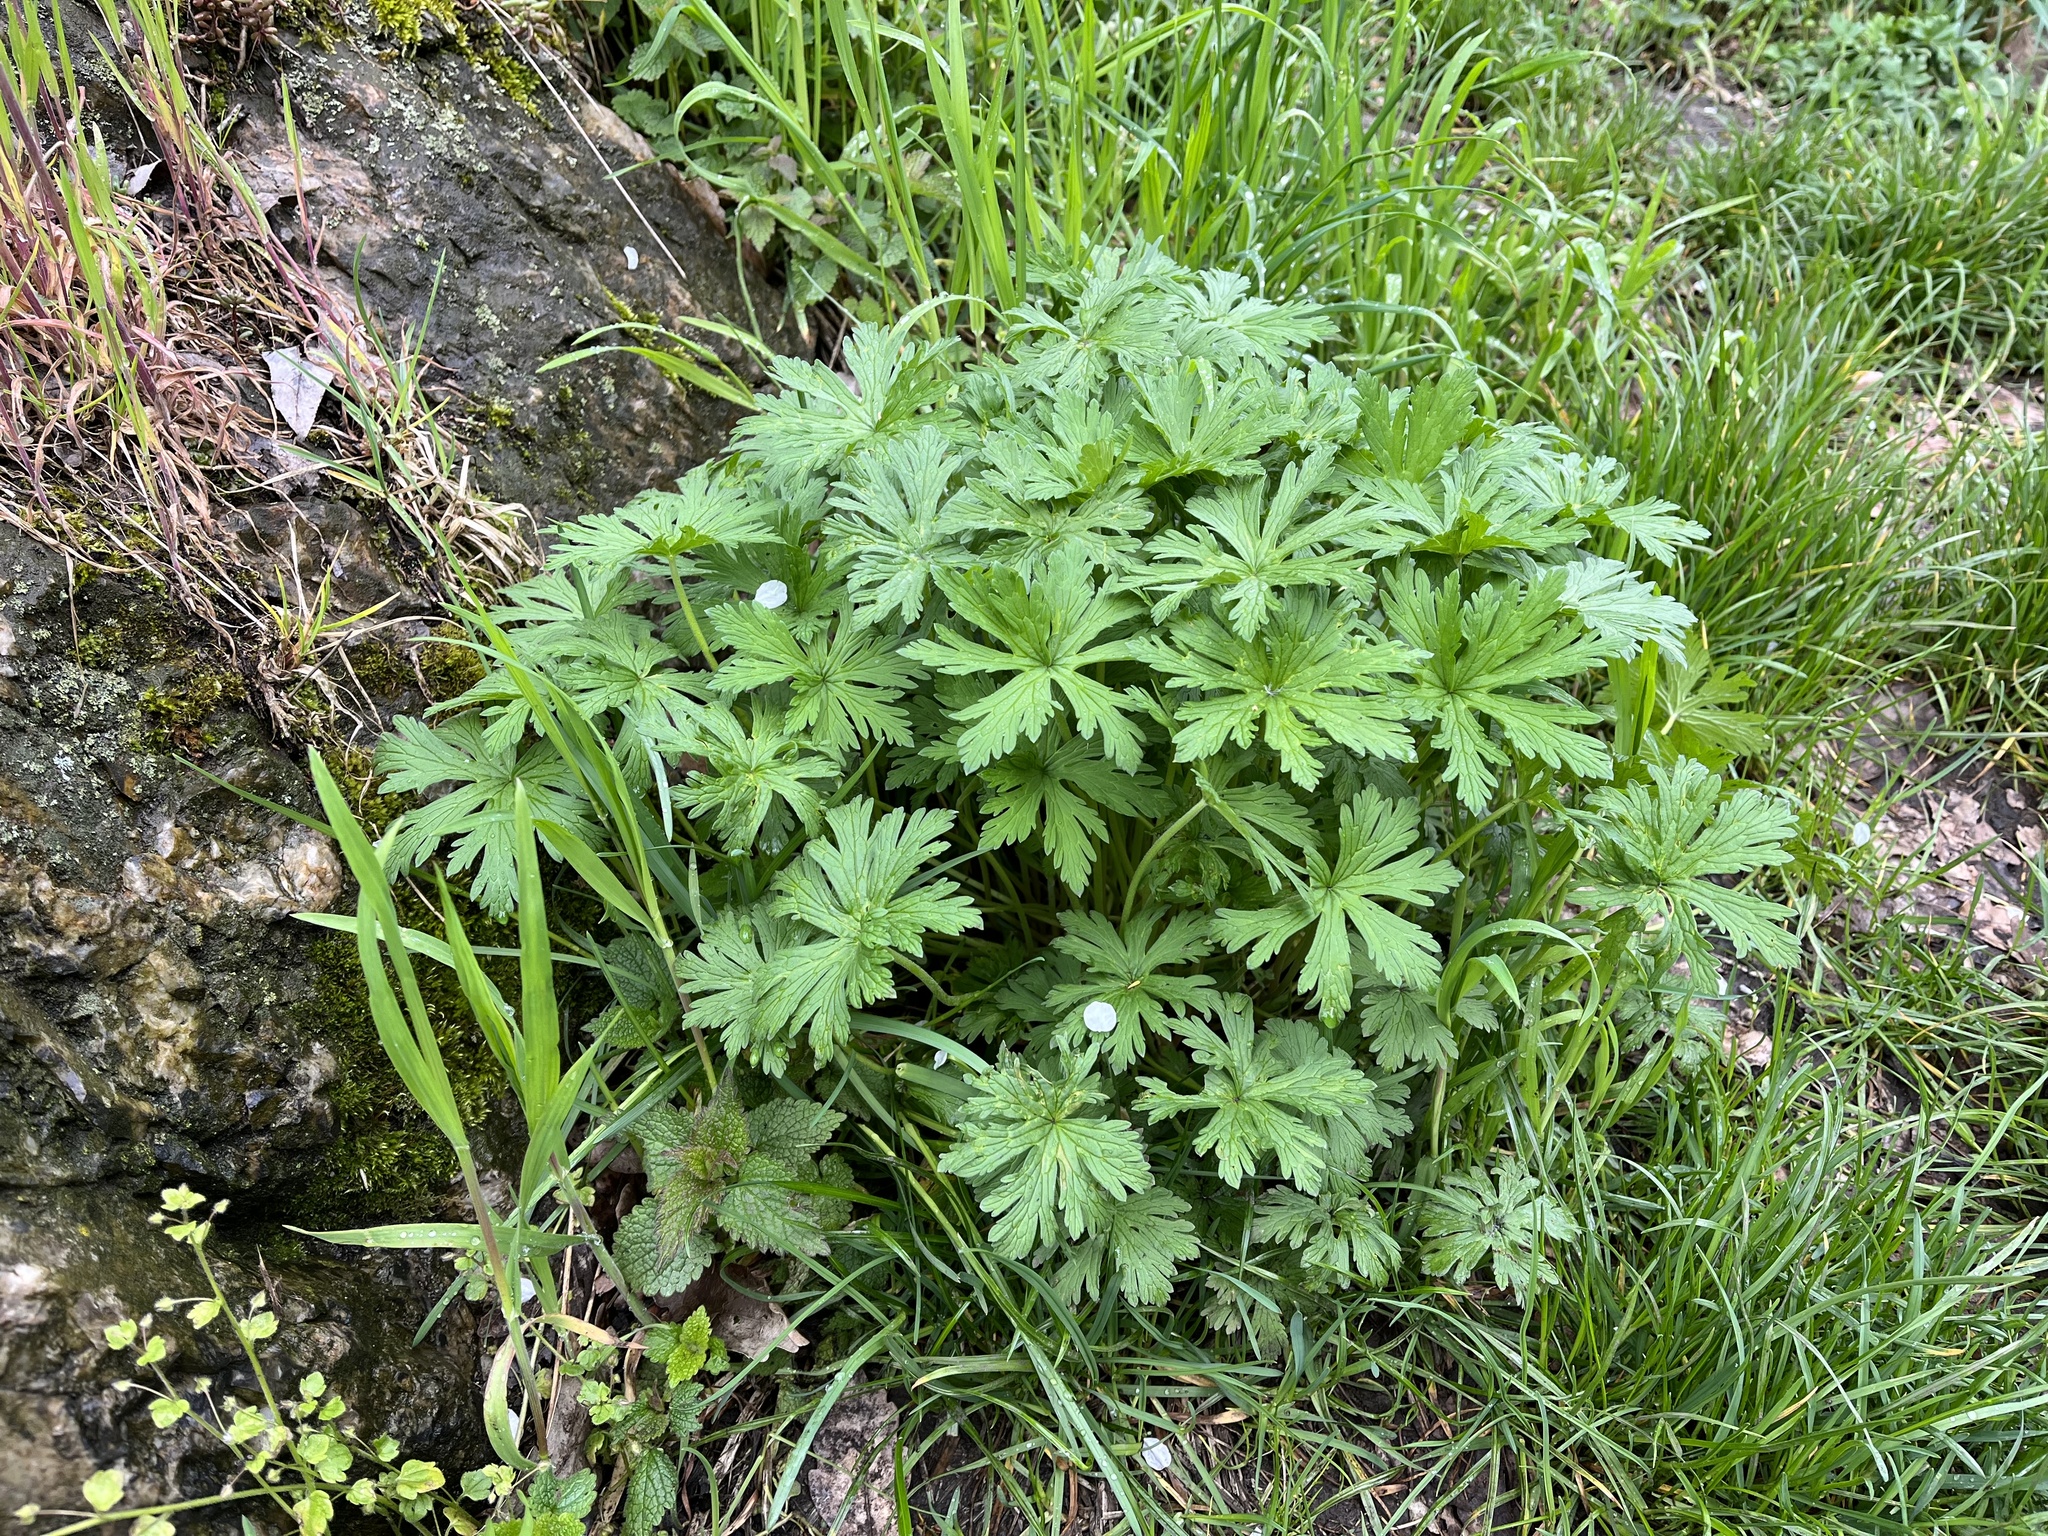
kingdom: Plantae
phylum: Tracheophyta
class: Magnoliopsida
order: Geraniales
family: Geraniaceae
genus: Geranium
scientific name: Geranium pratense
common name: Meadow crane's-bill
